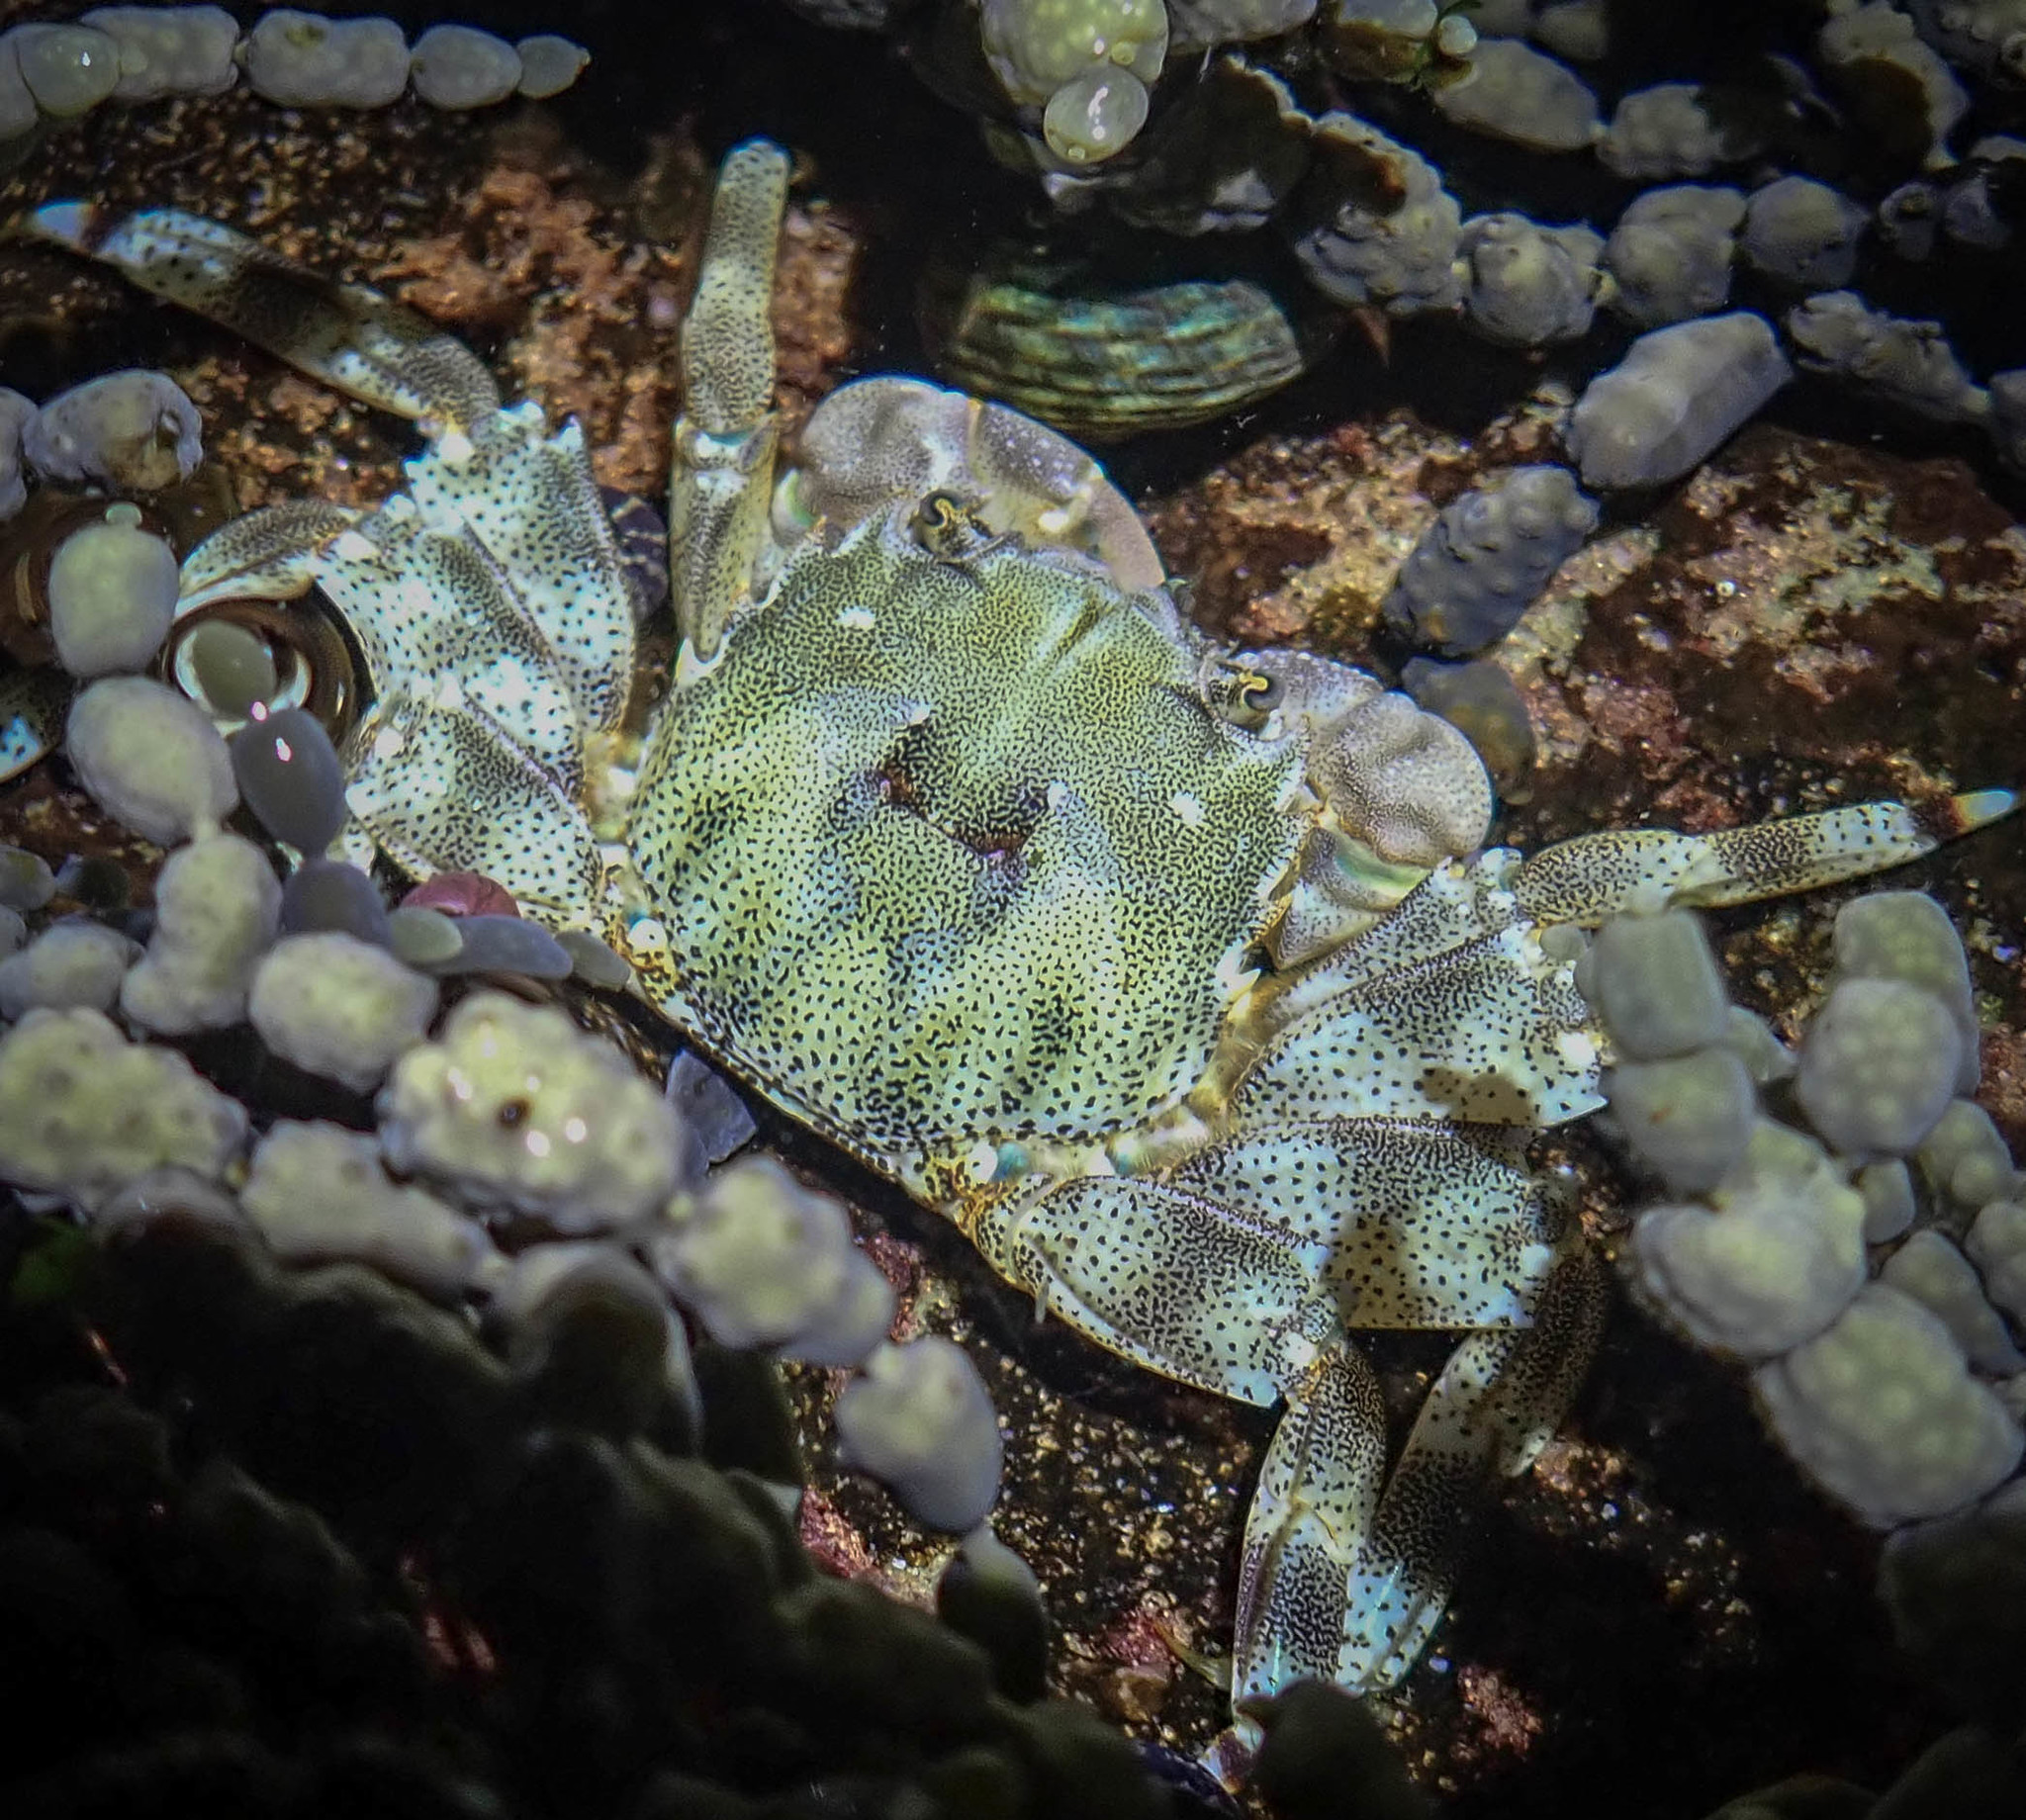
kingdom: Animalia
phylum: Arthropoda
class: Malacostraca
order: Decapoda
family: Plagusiidae
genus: Davusia
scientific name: Davusia glabra
